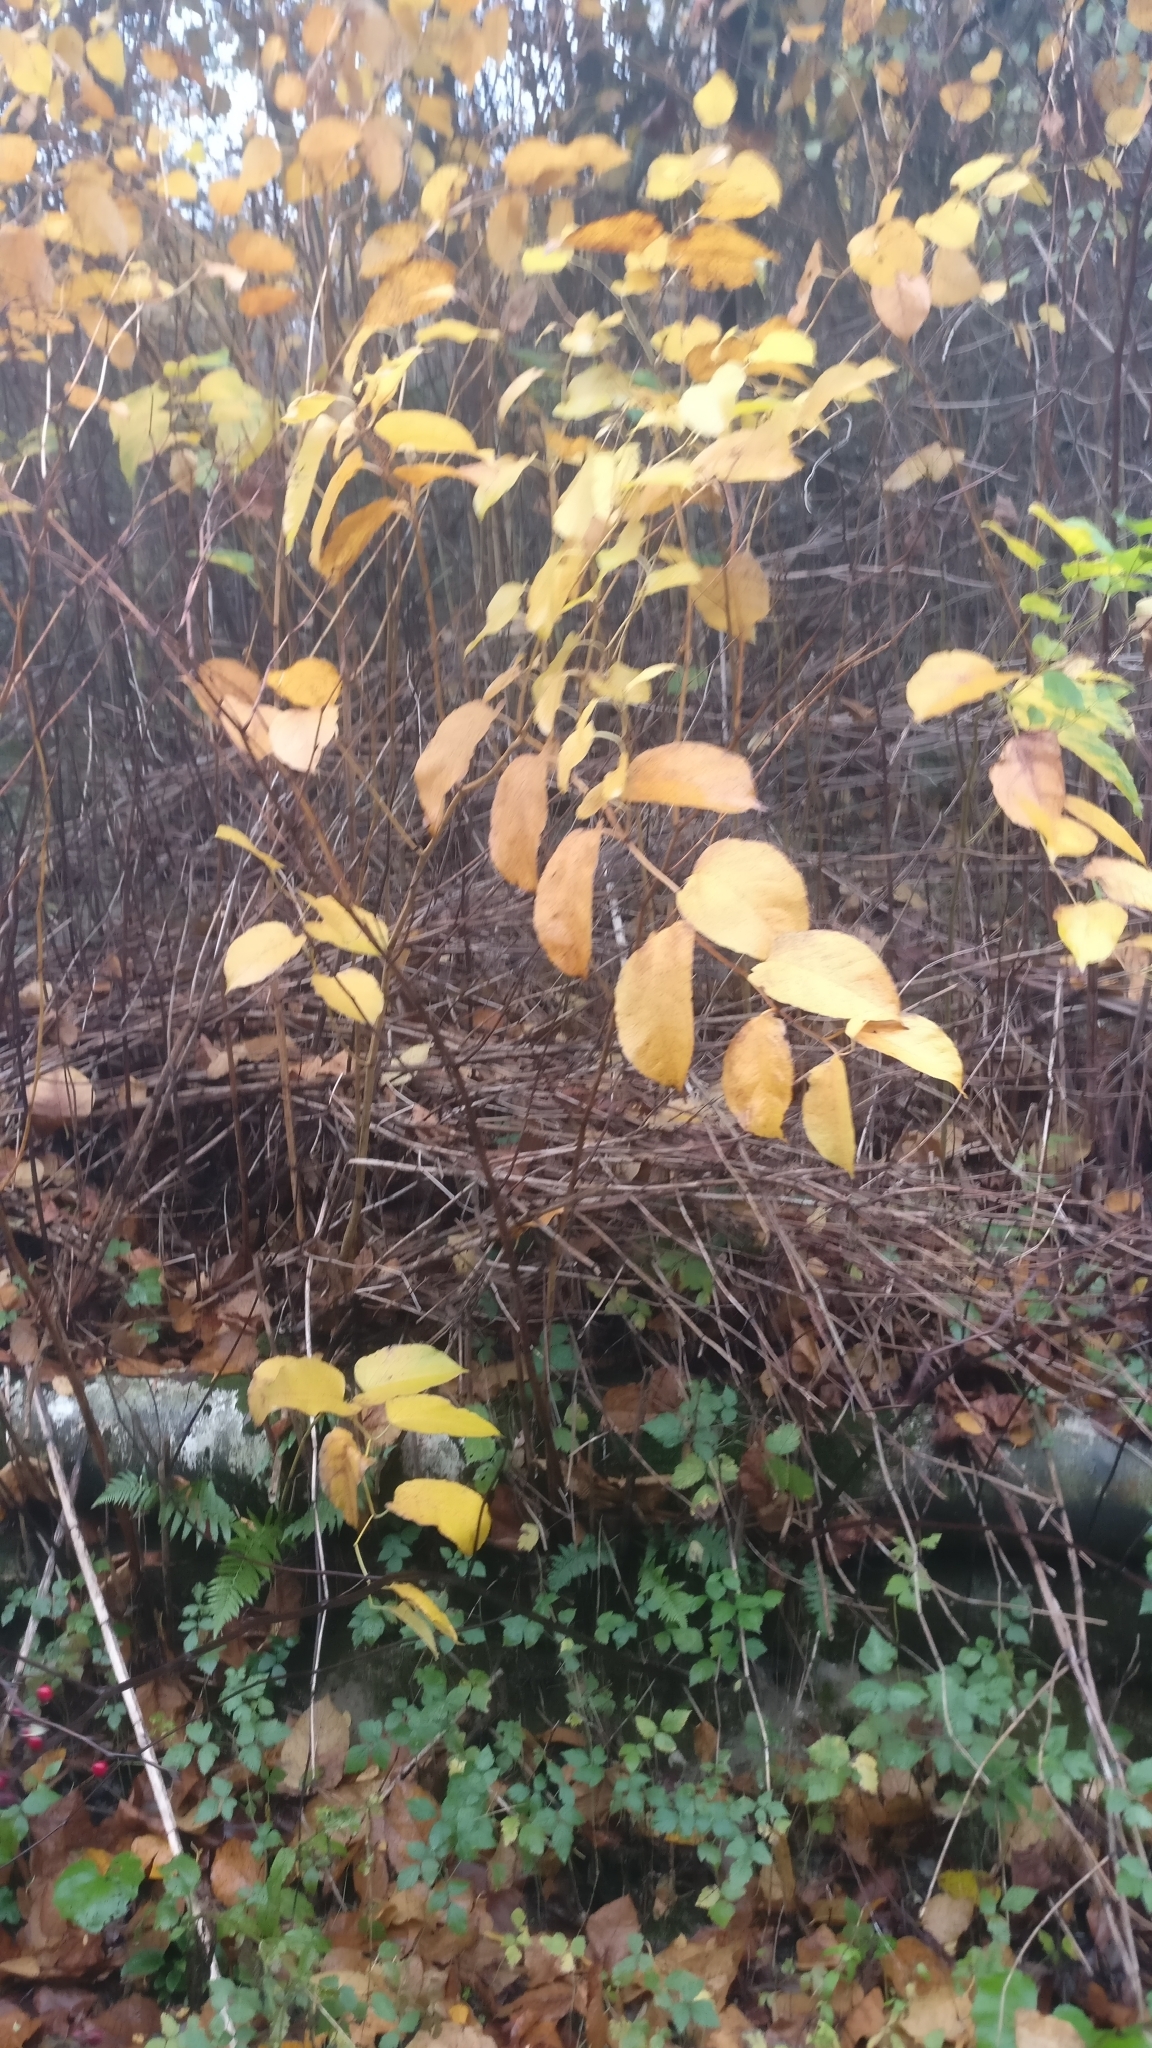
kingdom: Plantae
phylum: Tracheophyta
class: Magnoliopsida
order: Caryophyllales
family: Polygonaceae
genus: Reynoutria
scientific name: Reynoutria japonica
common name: Japanese knotweed
